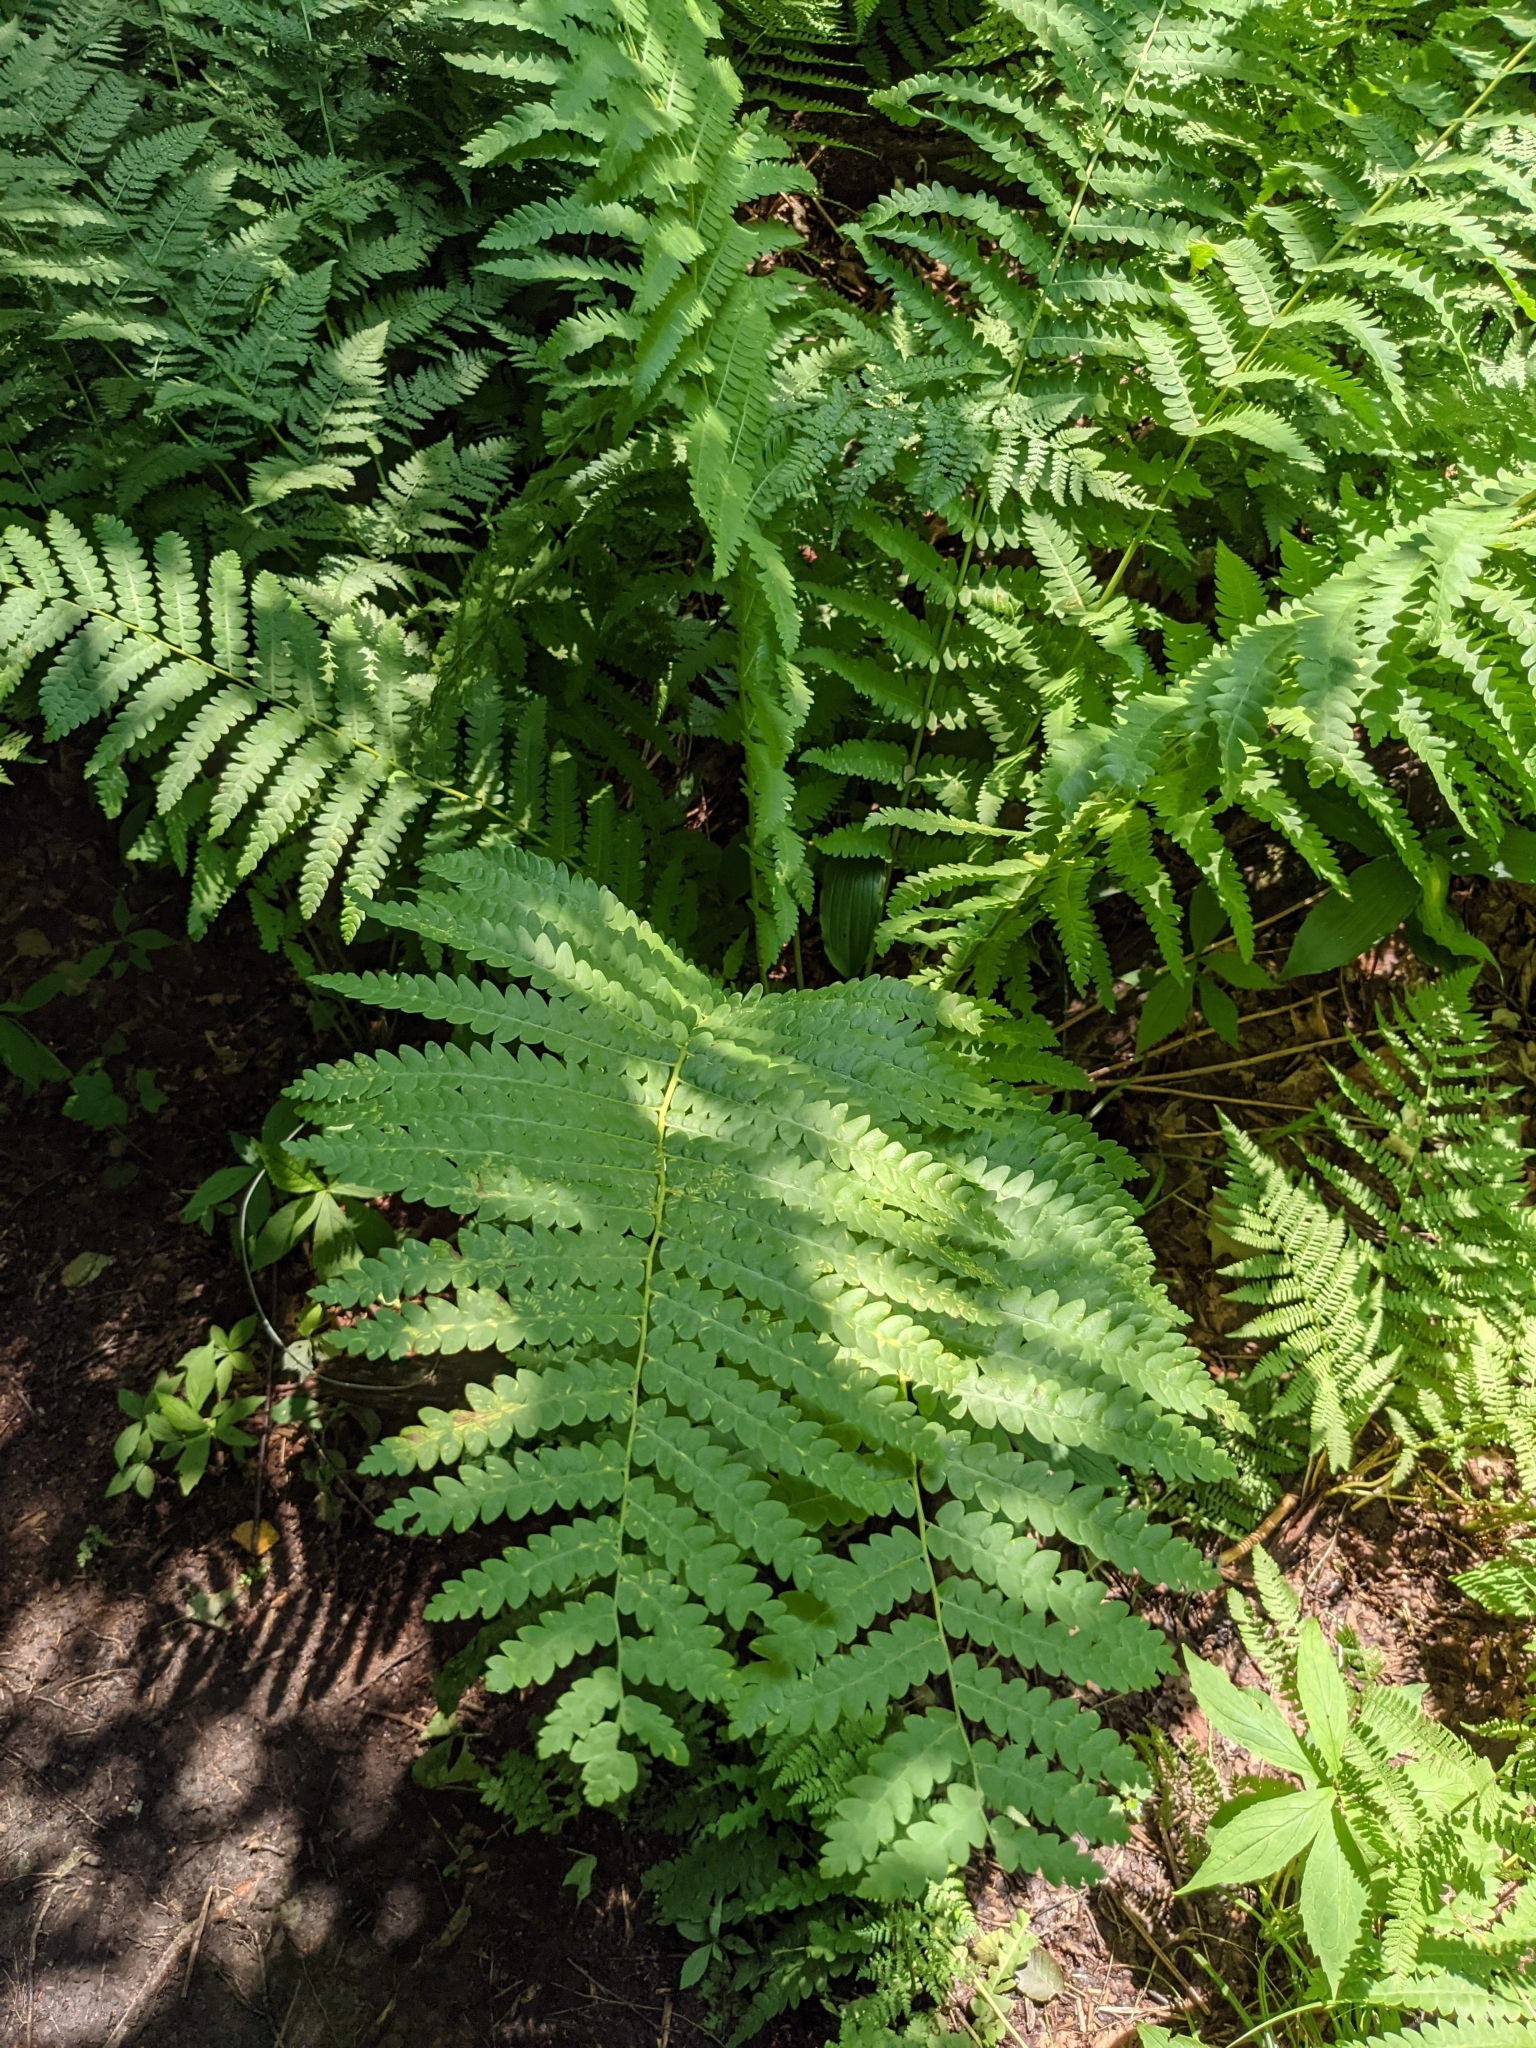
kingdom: Plantae
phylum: Tracheophyta
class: Polypodiopsida
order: Osmundales
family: Osmundaceae
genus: Claytosmunda
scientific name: Claytosmunda claytoniana
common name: Clayton's fern
